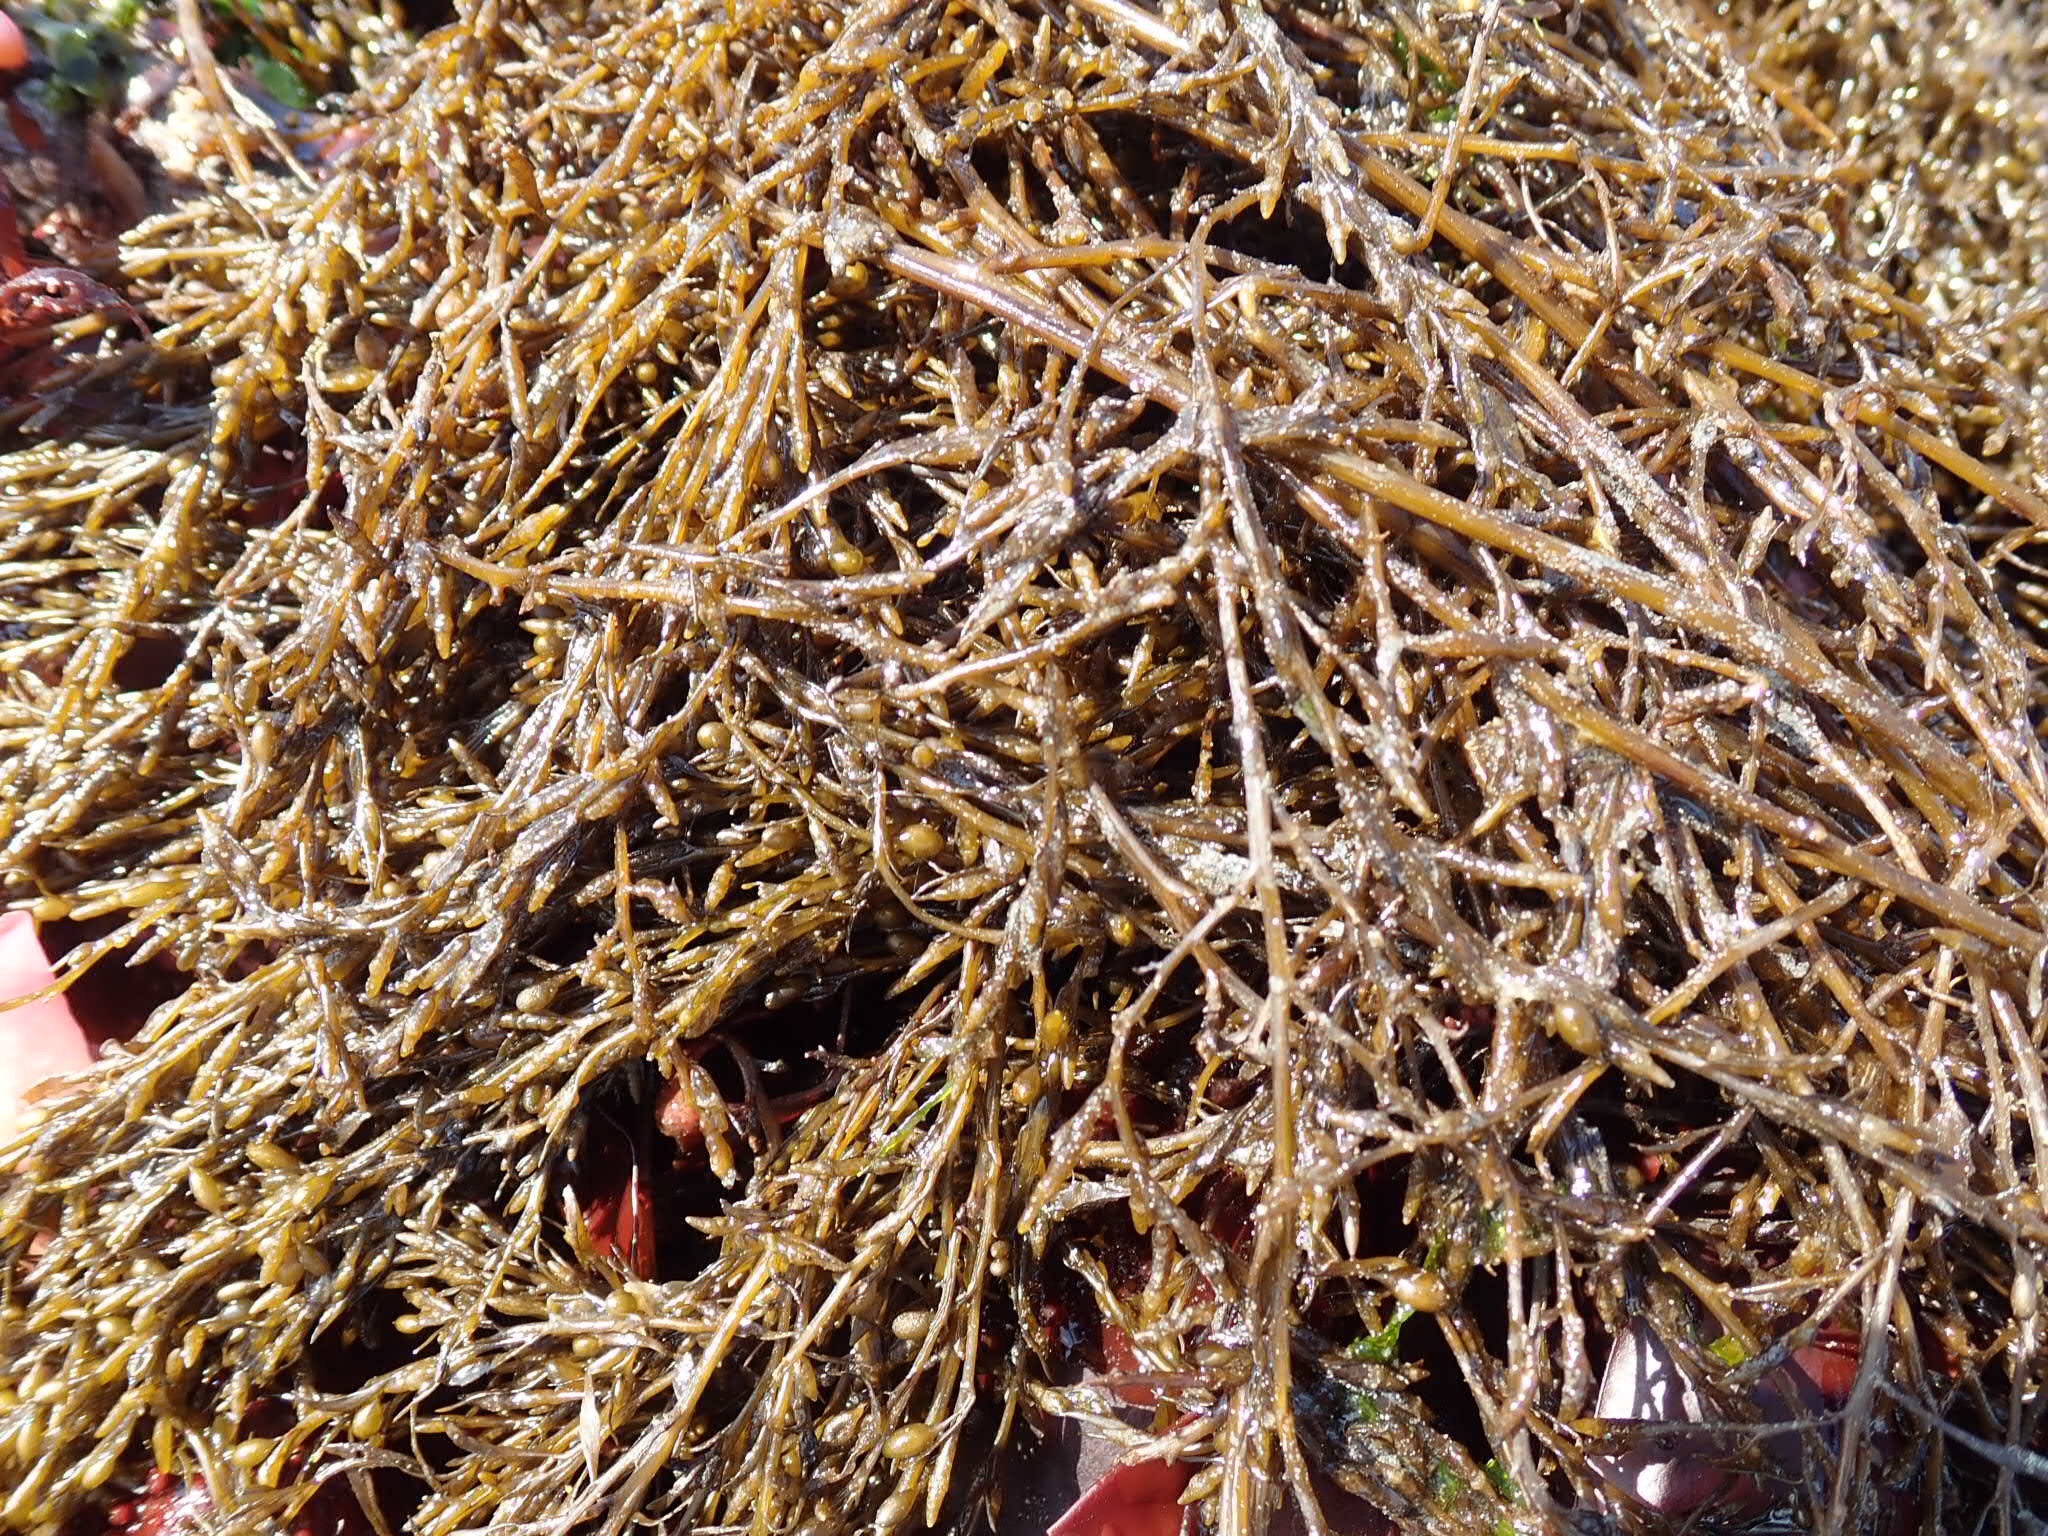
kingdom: Chromista
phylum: Ochrophyta
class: Phaeophyceae
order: Fucales
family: Sargassaceae
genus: Sargassum
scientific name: Sargassum muticum
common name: Japweed
